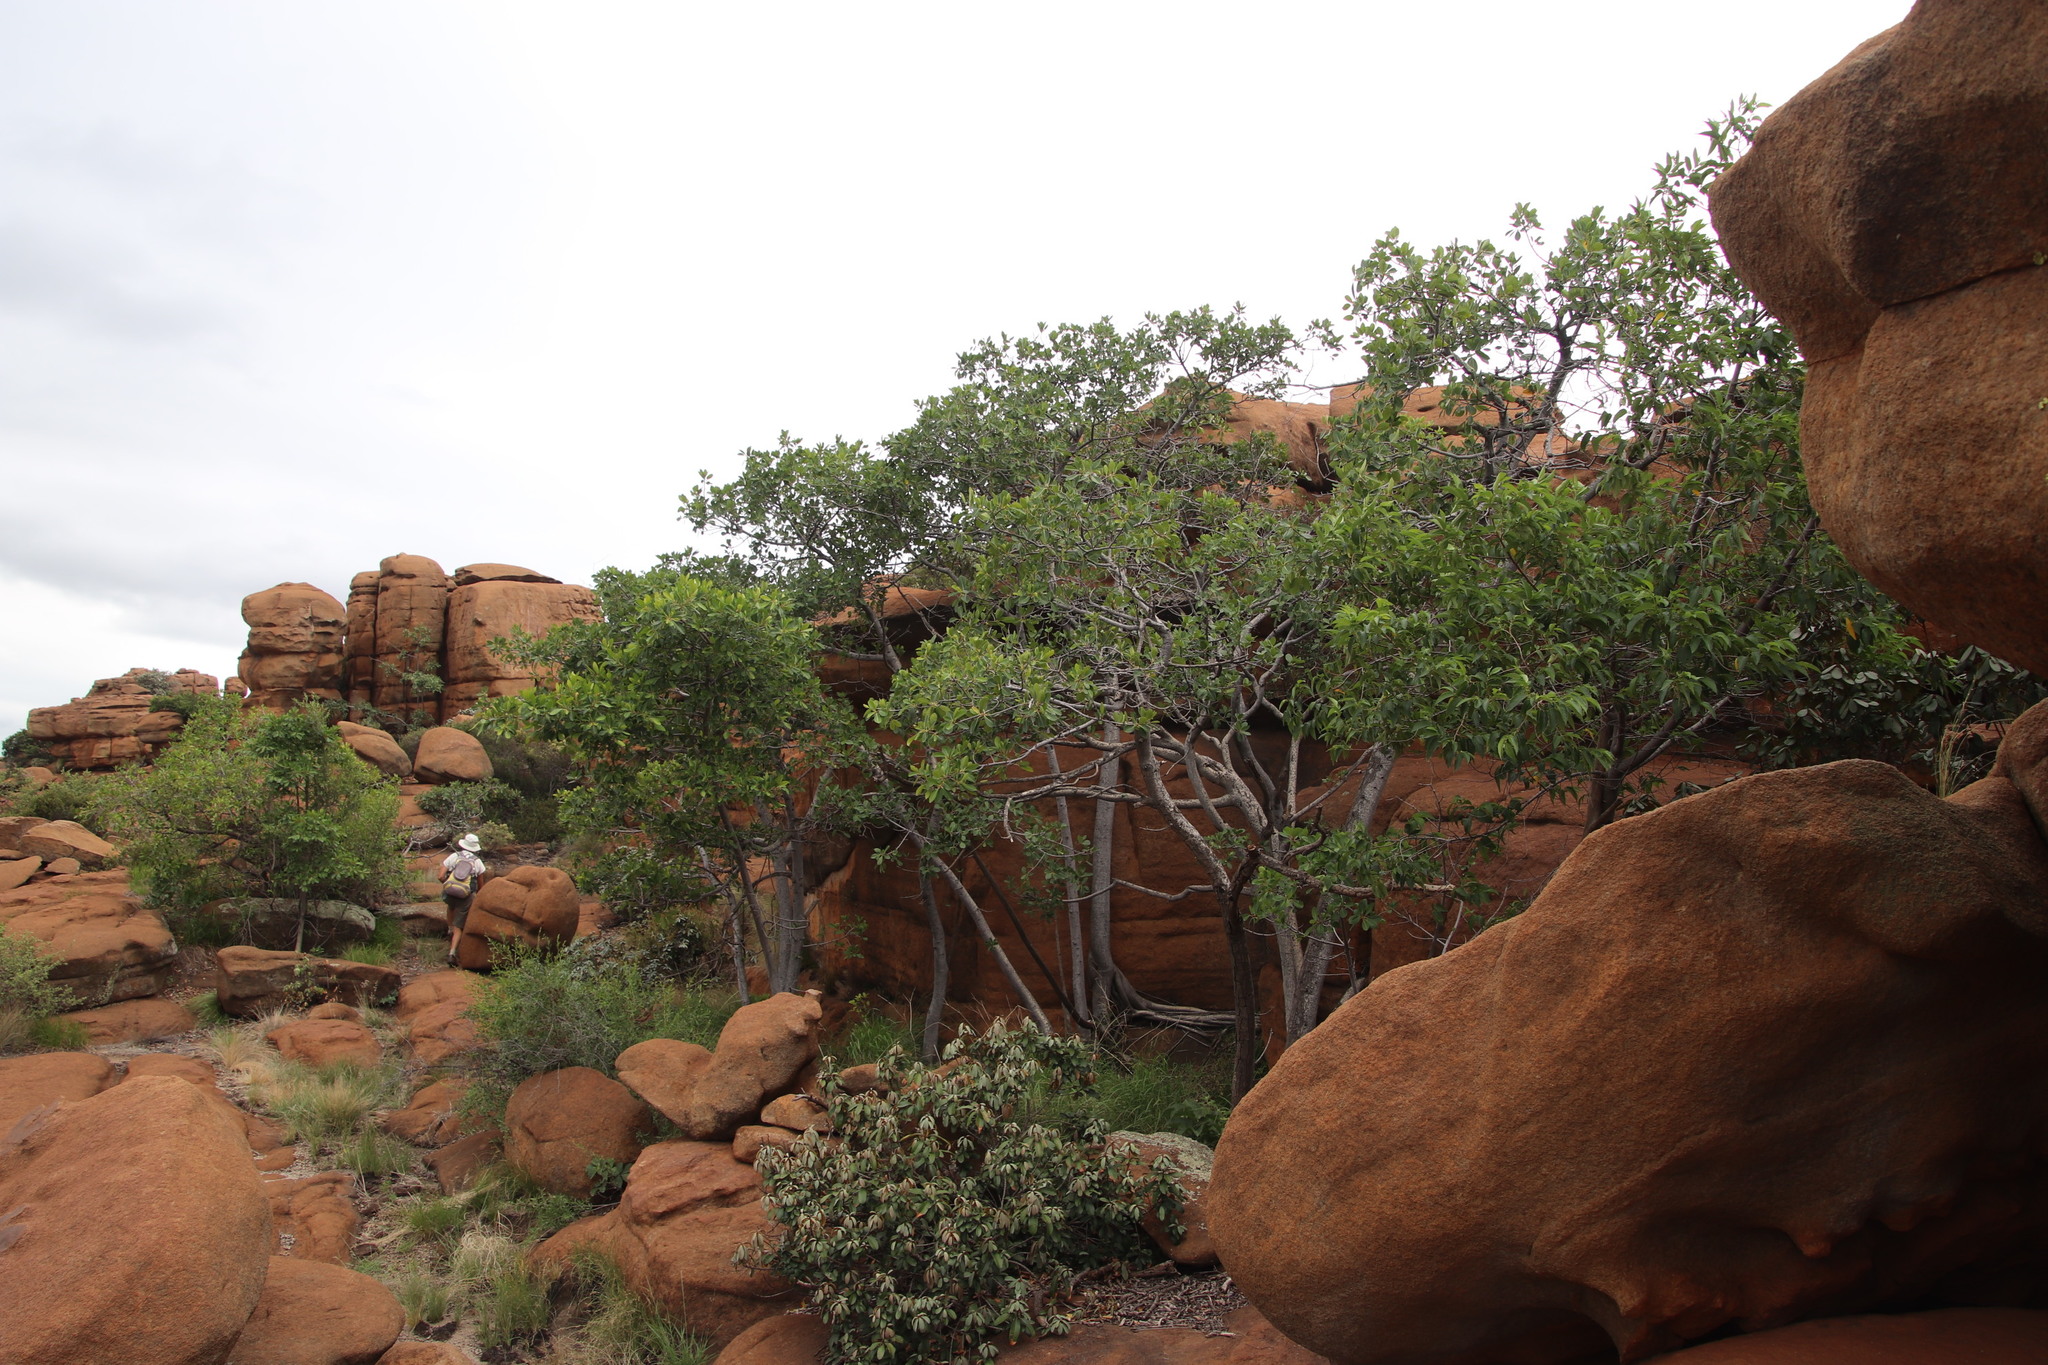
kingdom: Plantae
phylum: Tracheophyta
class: Magnoliopsida
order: Rosales
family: Cannabaceae
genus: Trema
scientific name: Trema orientale
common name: Indian charcoal tree
